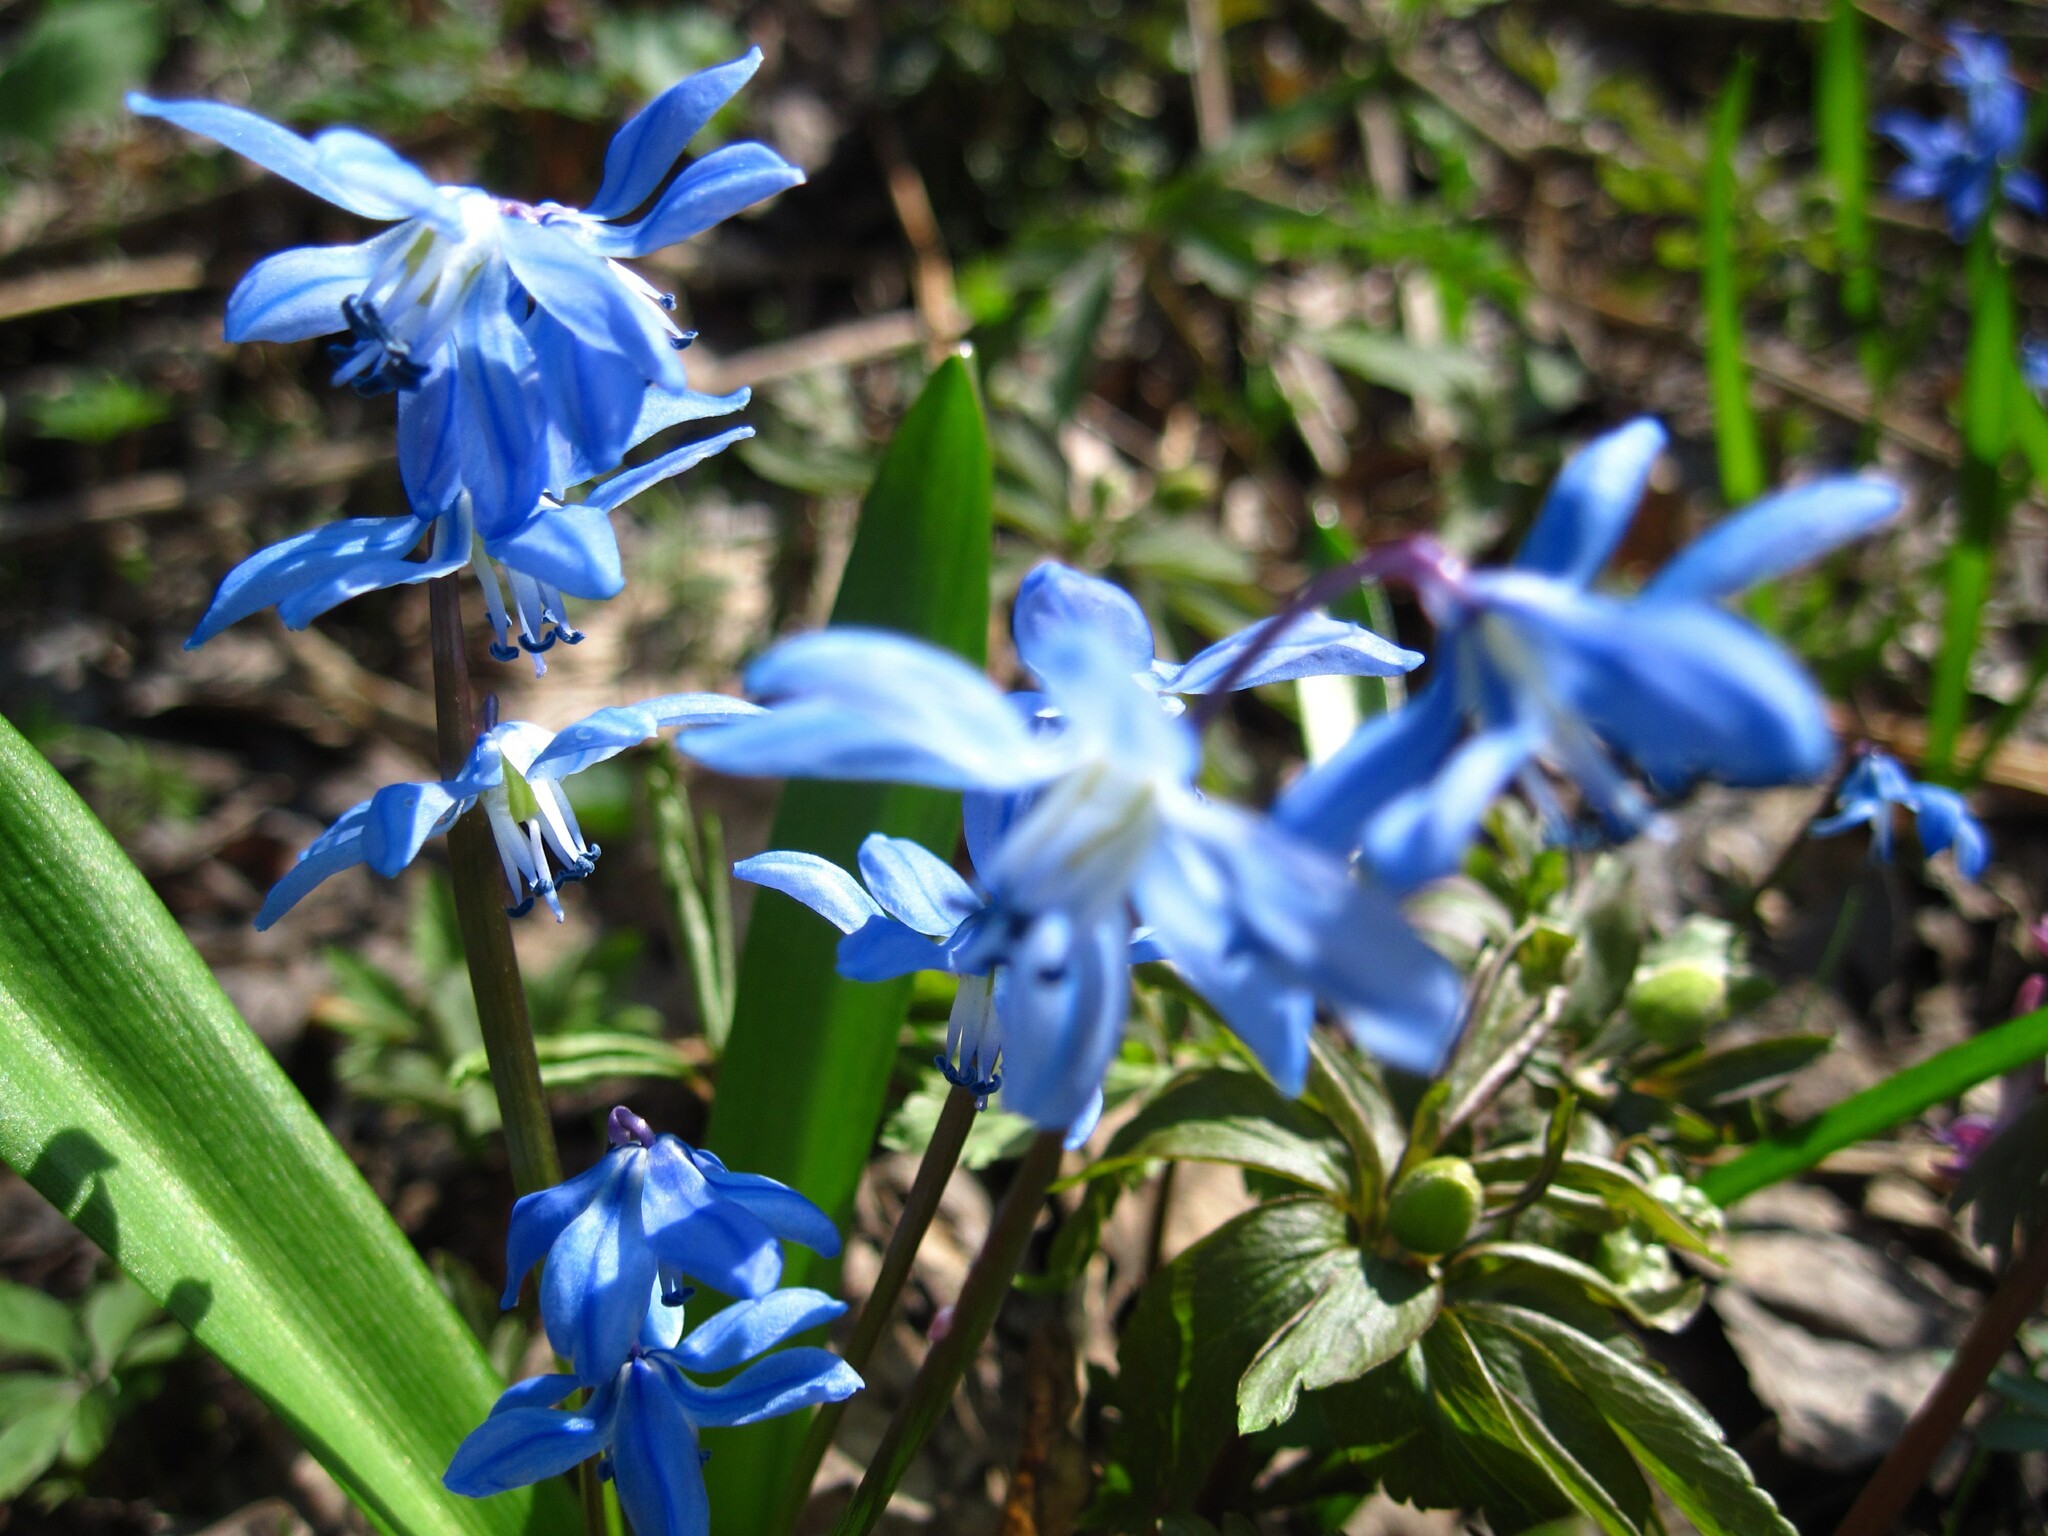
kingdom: Plantae
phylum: Tracheophyta
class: Liliopsida
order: Asparagales
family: Asparagaceae
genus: Scilla
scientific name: Scilla siberica
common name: Siberian squill
